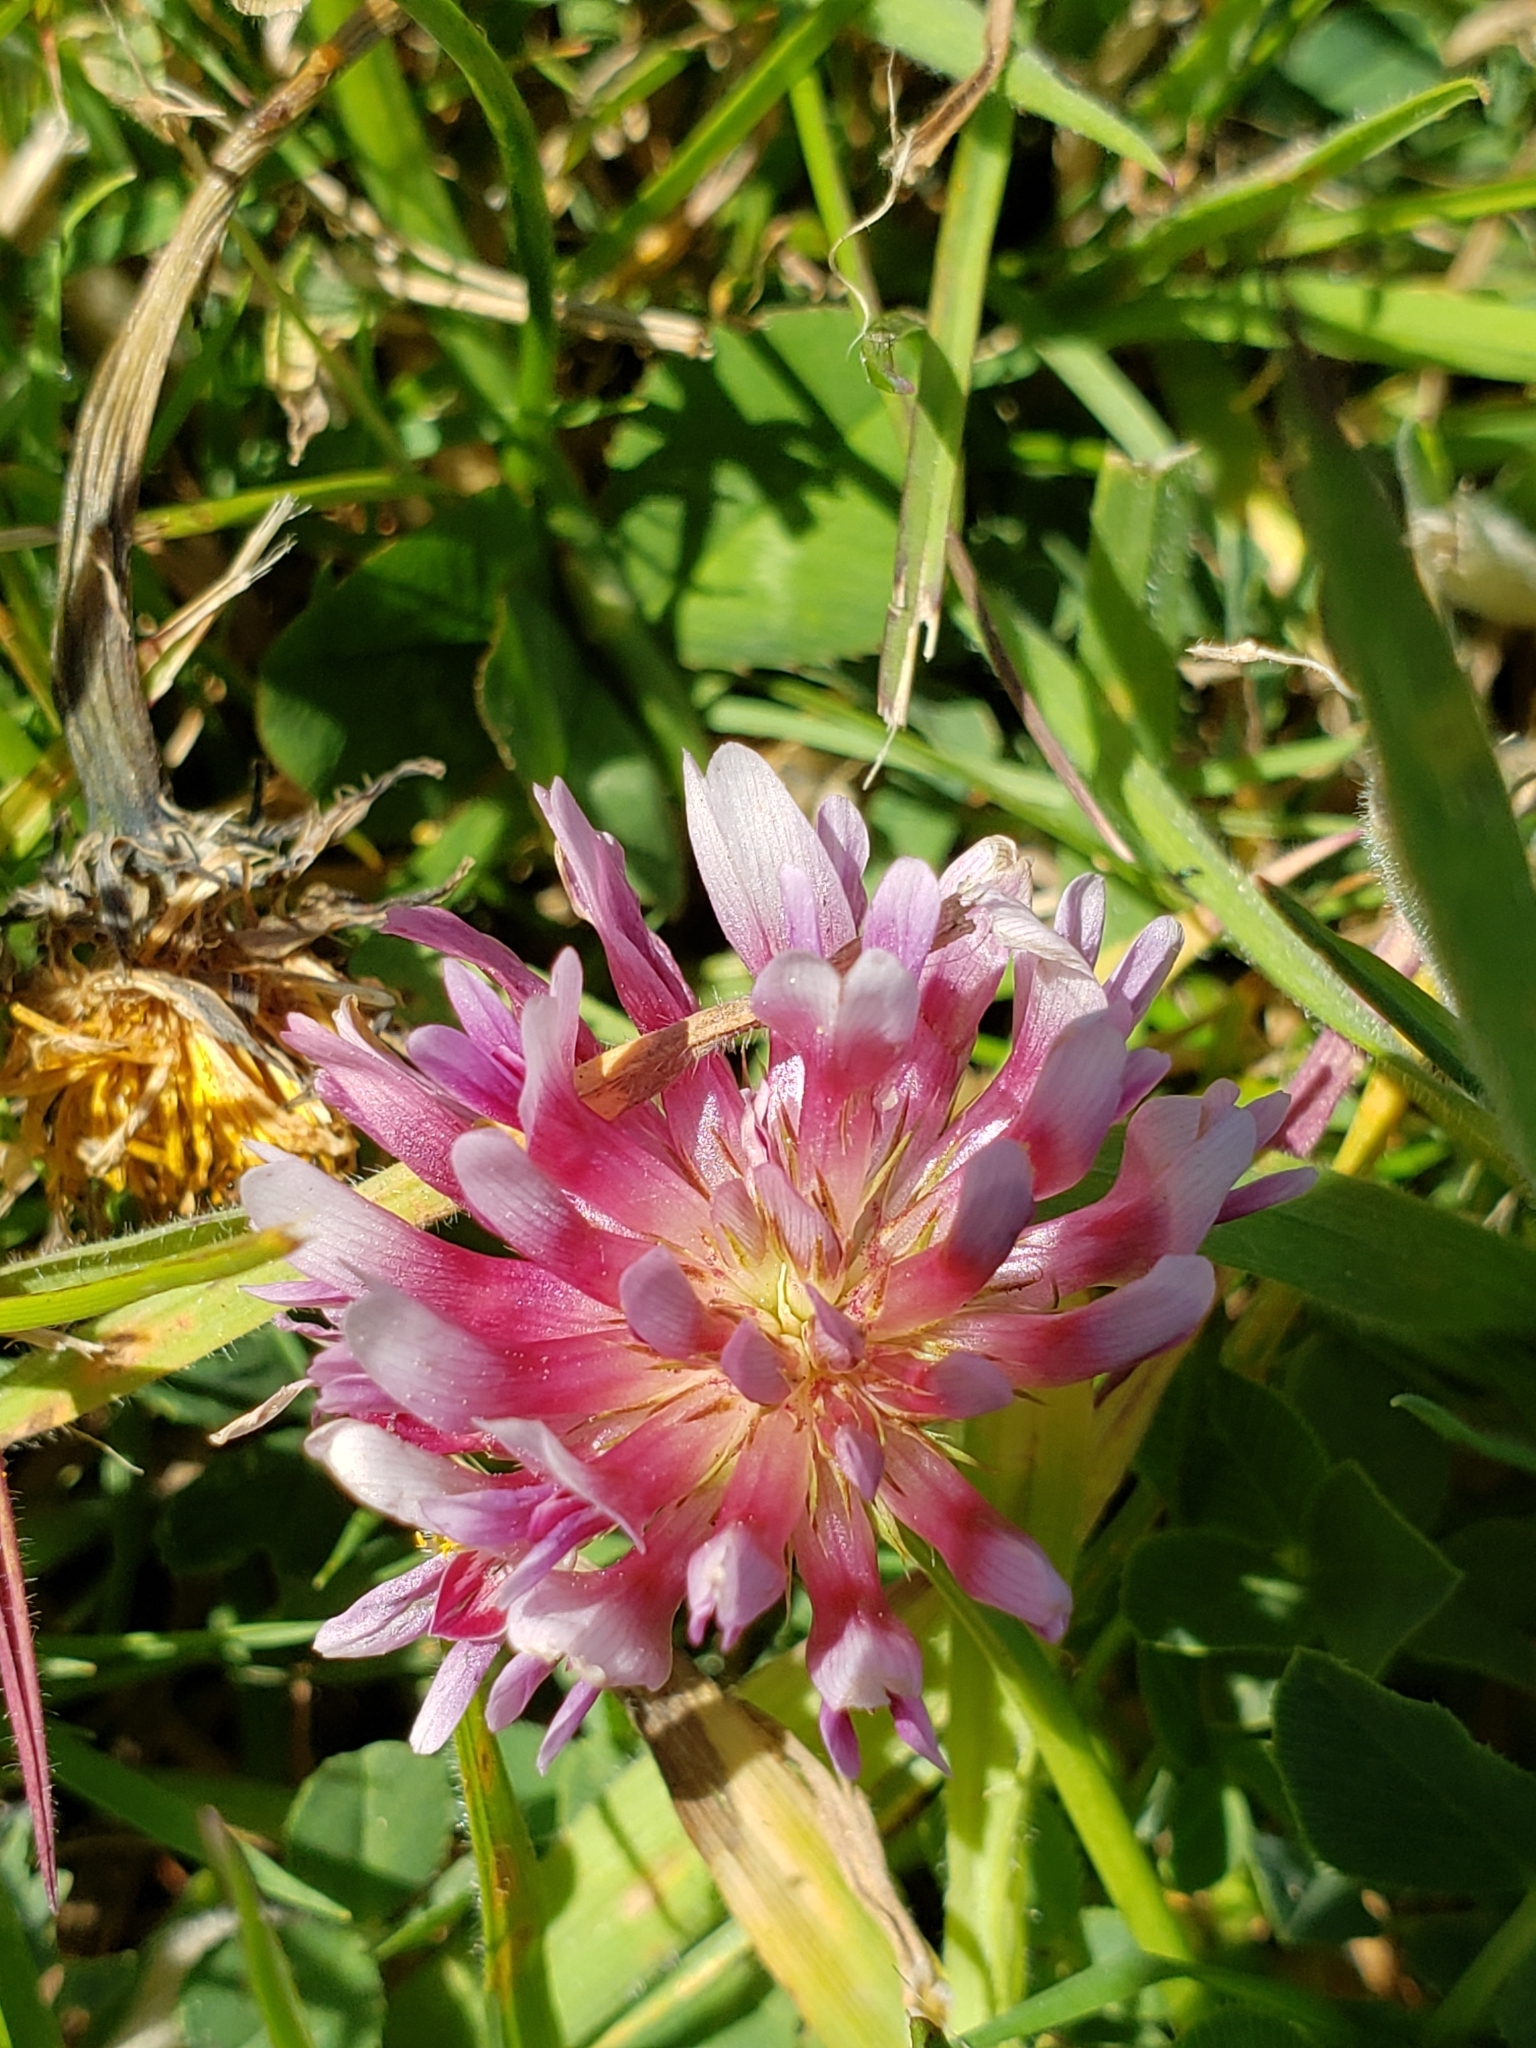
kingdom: Plantae
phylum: Tracheophyta
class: Magnoliopsida
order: Fabales
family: Fabaceae
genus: Trifolium
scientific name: Trifolium wormskioldii
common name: Springbank clover
